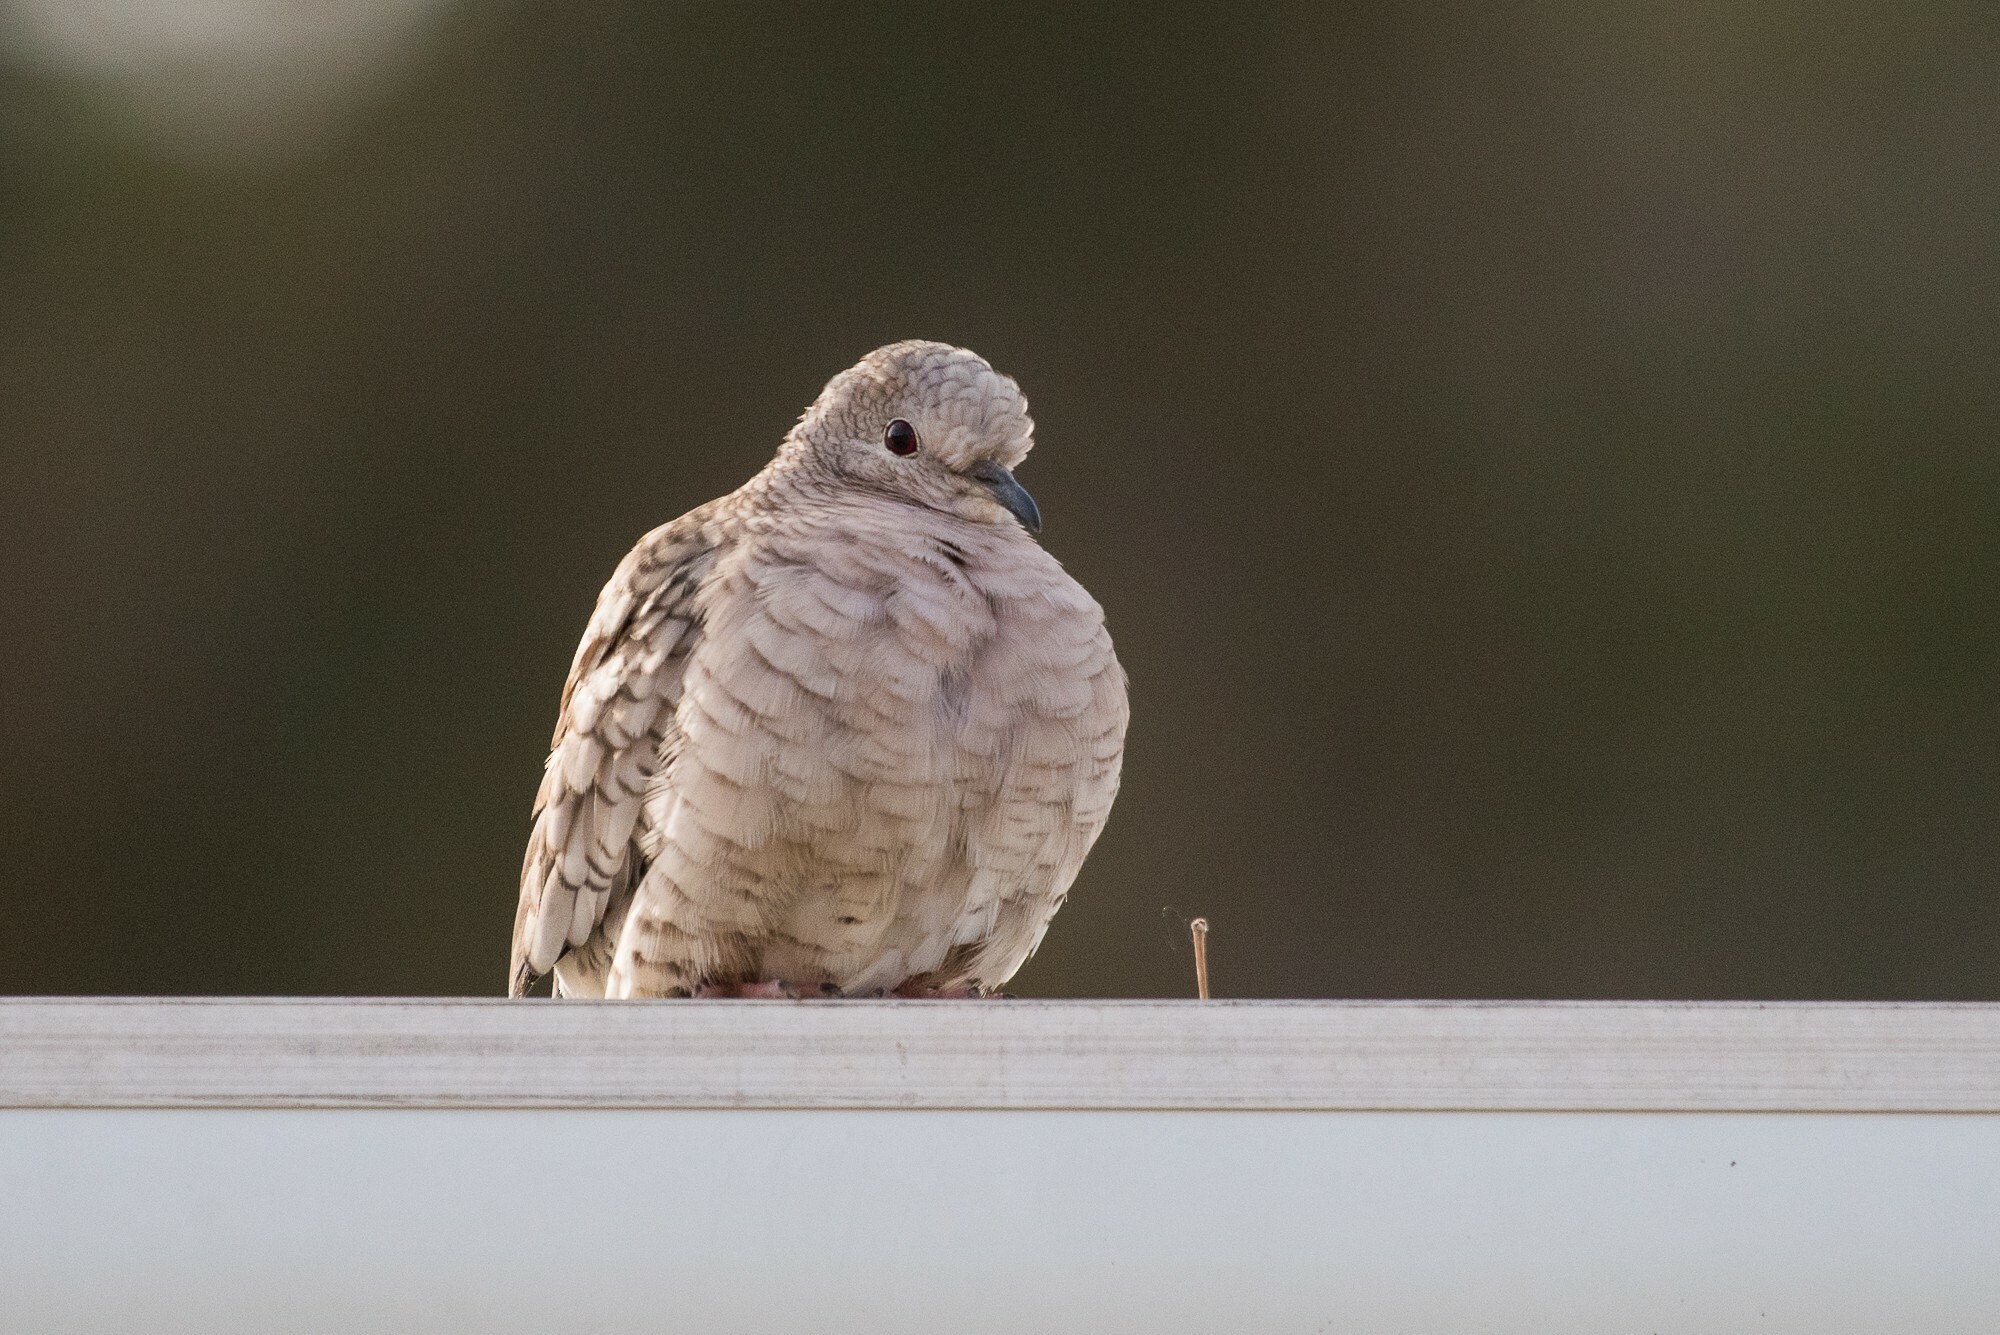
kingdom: Animalia
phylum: Chordata
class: Aves
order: Columbiformes
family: Columbidae
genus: Columbina
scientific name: Columbina inca
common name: Inca dove
